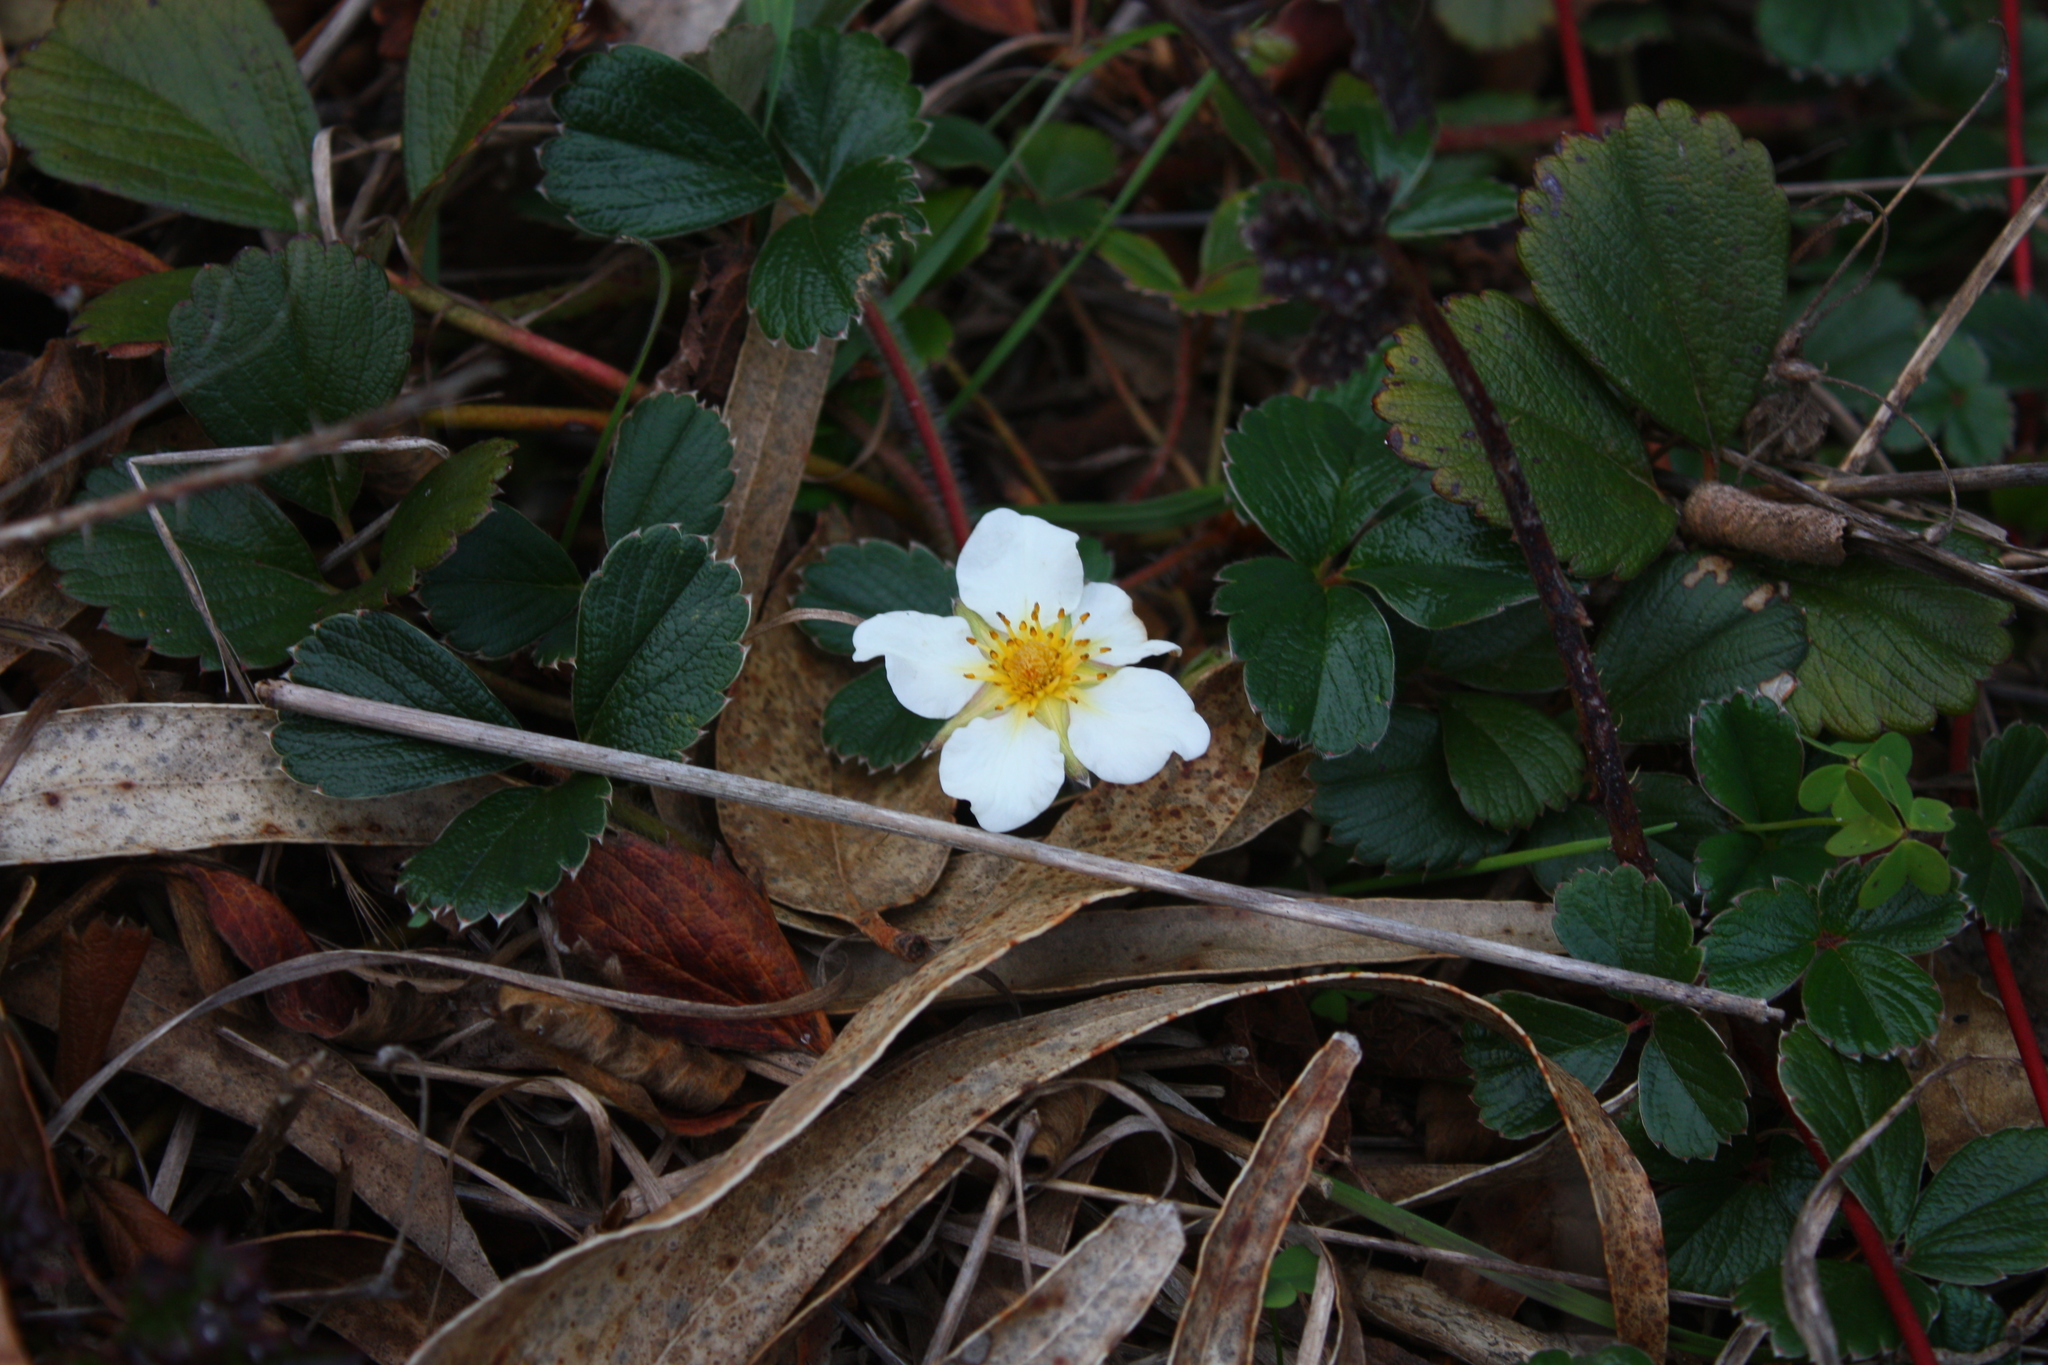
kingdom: Plantae
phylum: Tracheophyta
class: Magnoliopsida
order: Rosales
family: Rosaceae
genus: Fragaria
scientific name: Fragaria chiloensis
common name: Beach strawberry
